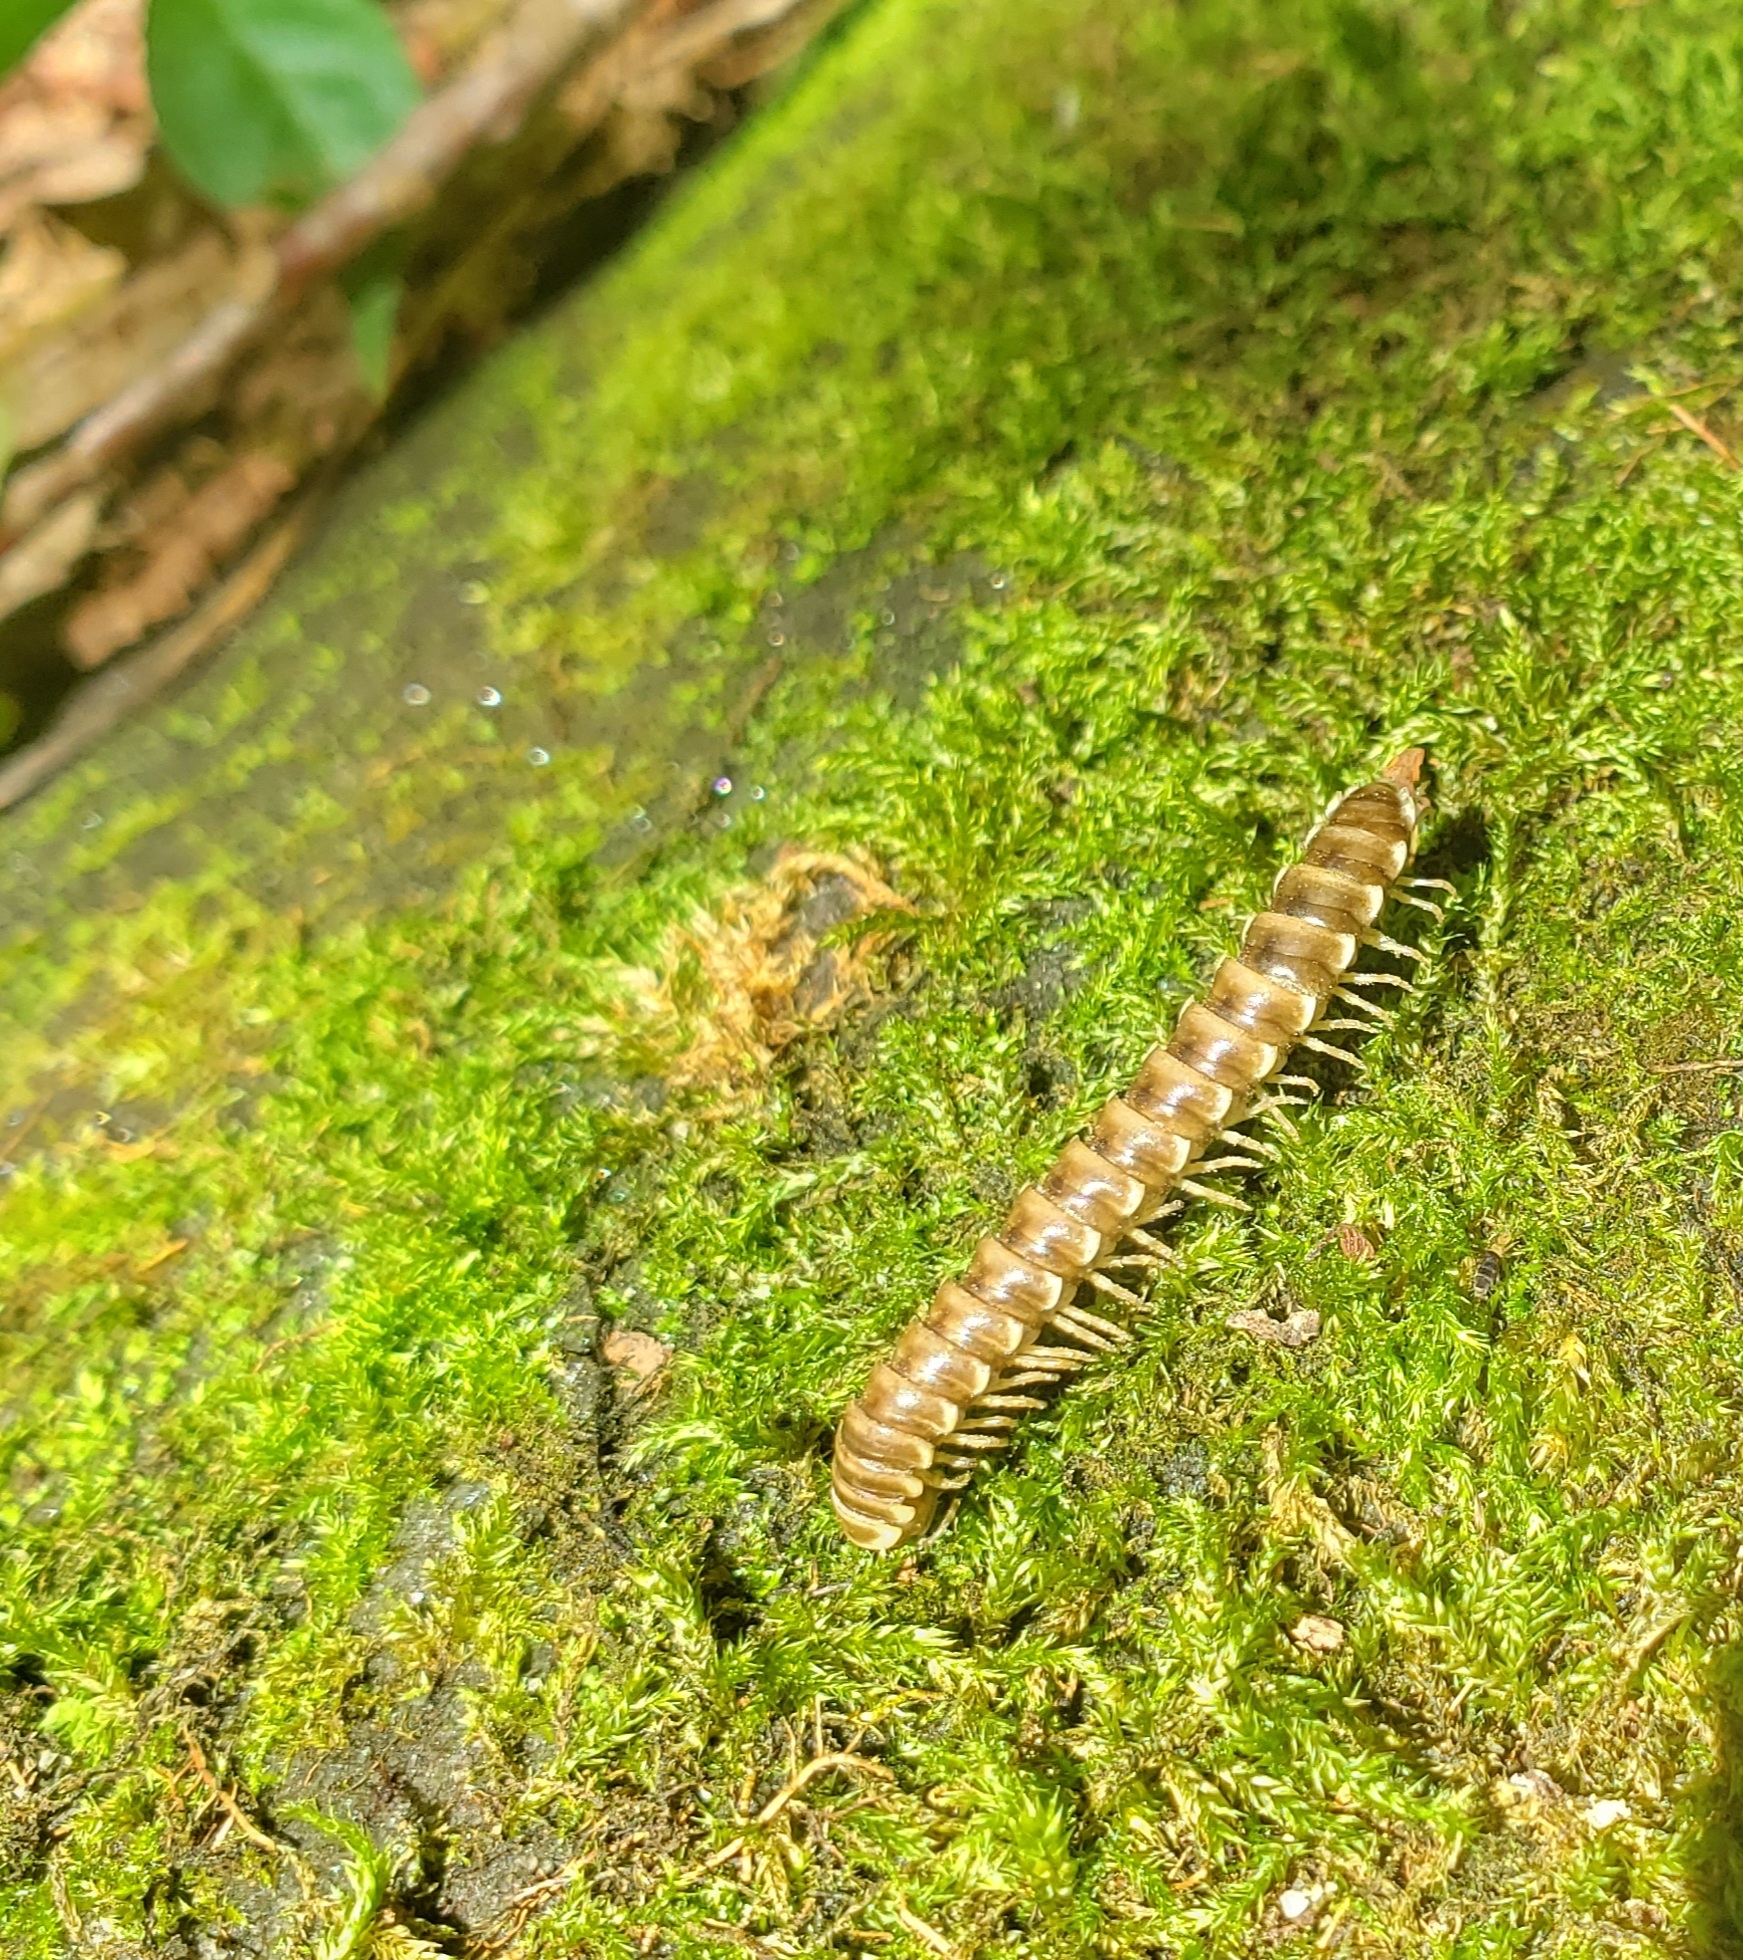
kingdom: Fungi
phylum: Entomophthoromycota
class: Entomophthoromycetes
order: Entomophthorales
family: Entomophthoraceae
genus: Arthrophaga
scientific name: Arthrophaga myriapodina
